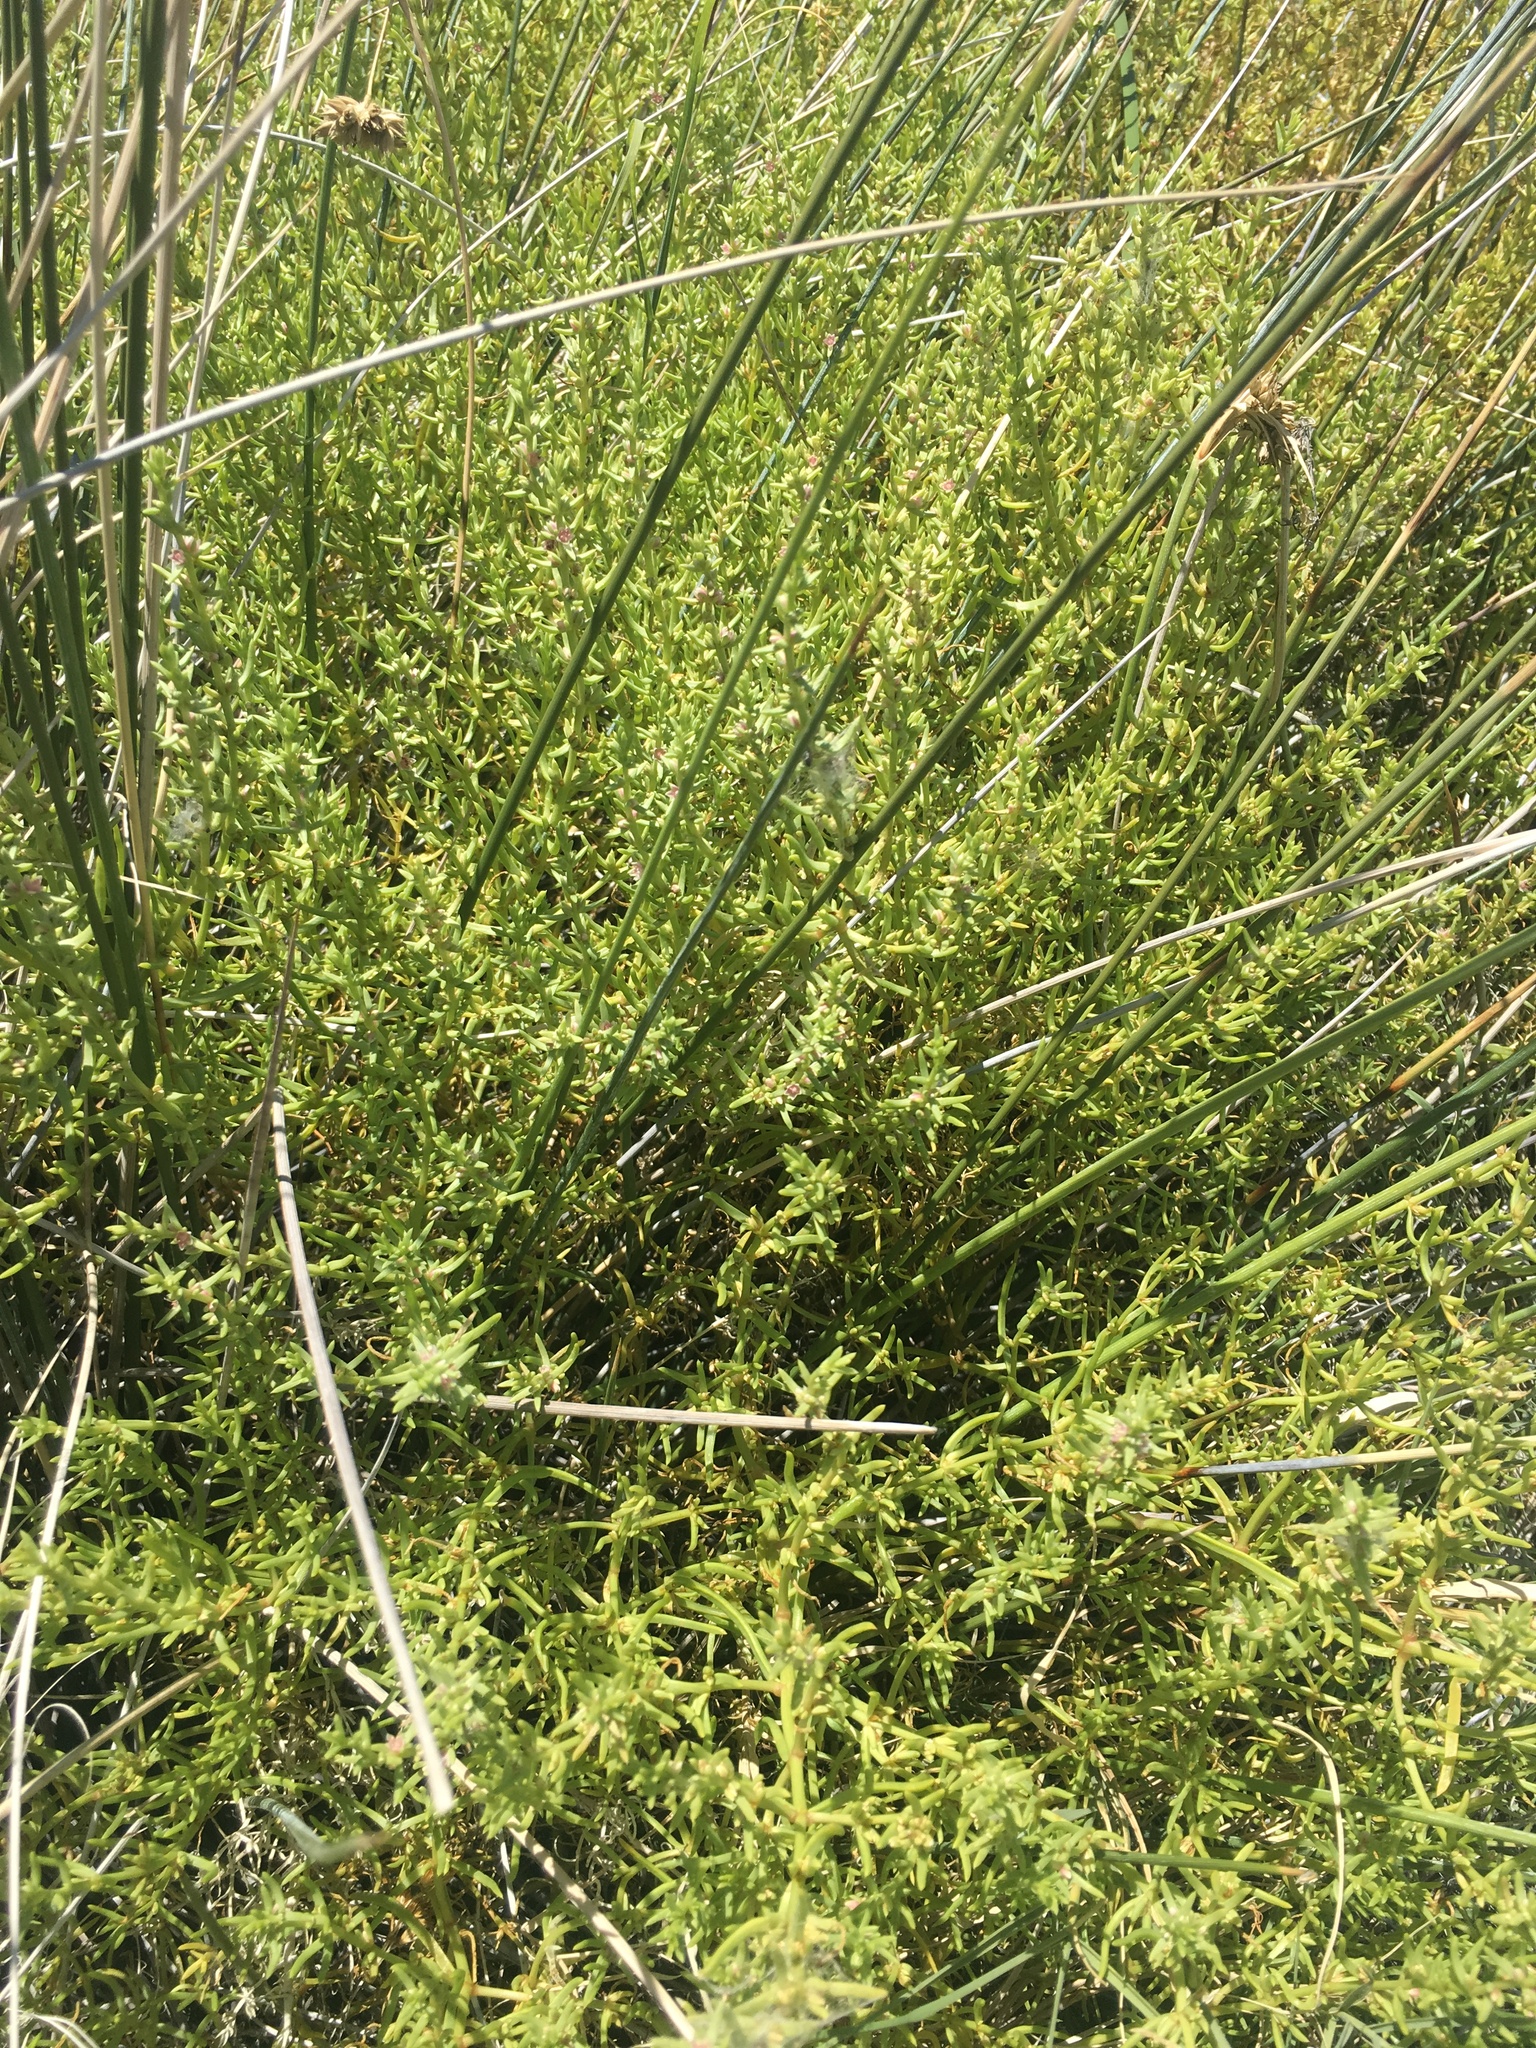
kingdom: Plantae
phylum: Tracheophyta
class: Magnoliopsida
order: Caryophyllales
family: Amaranthaceae
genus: Nitrophila
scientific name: Nitrophila occidentalis
